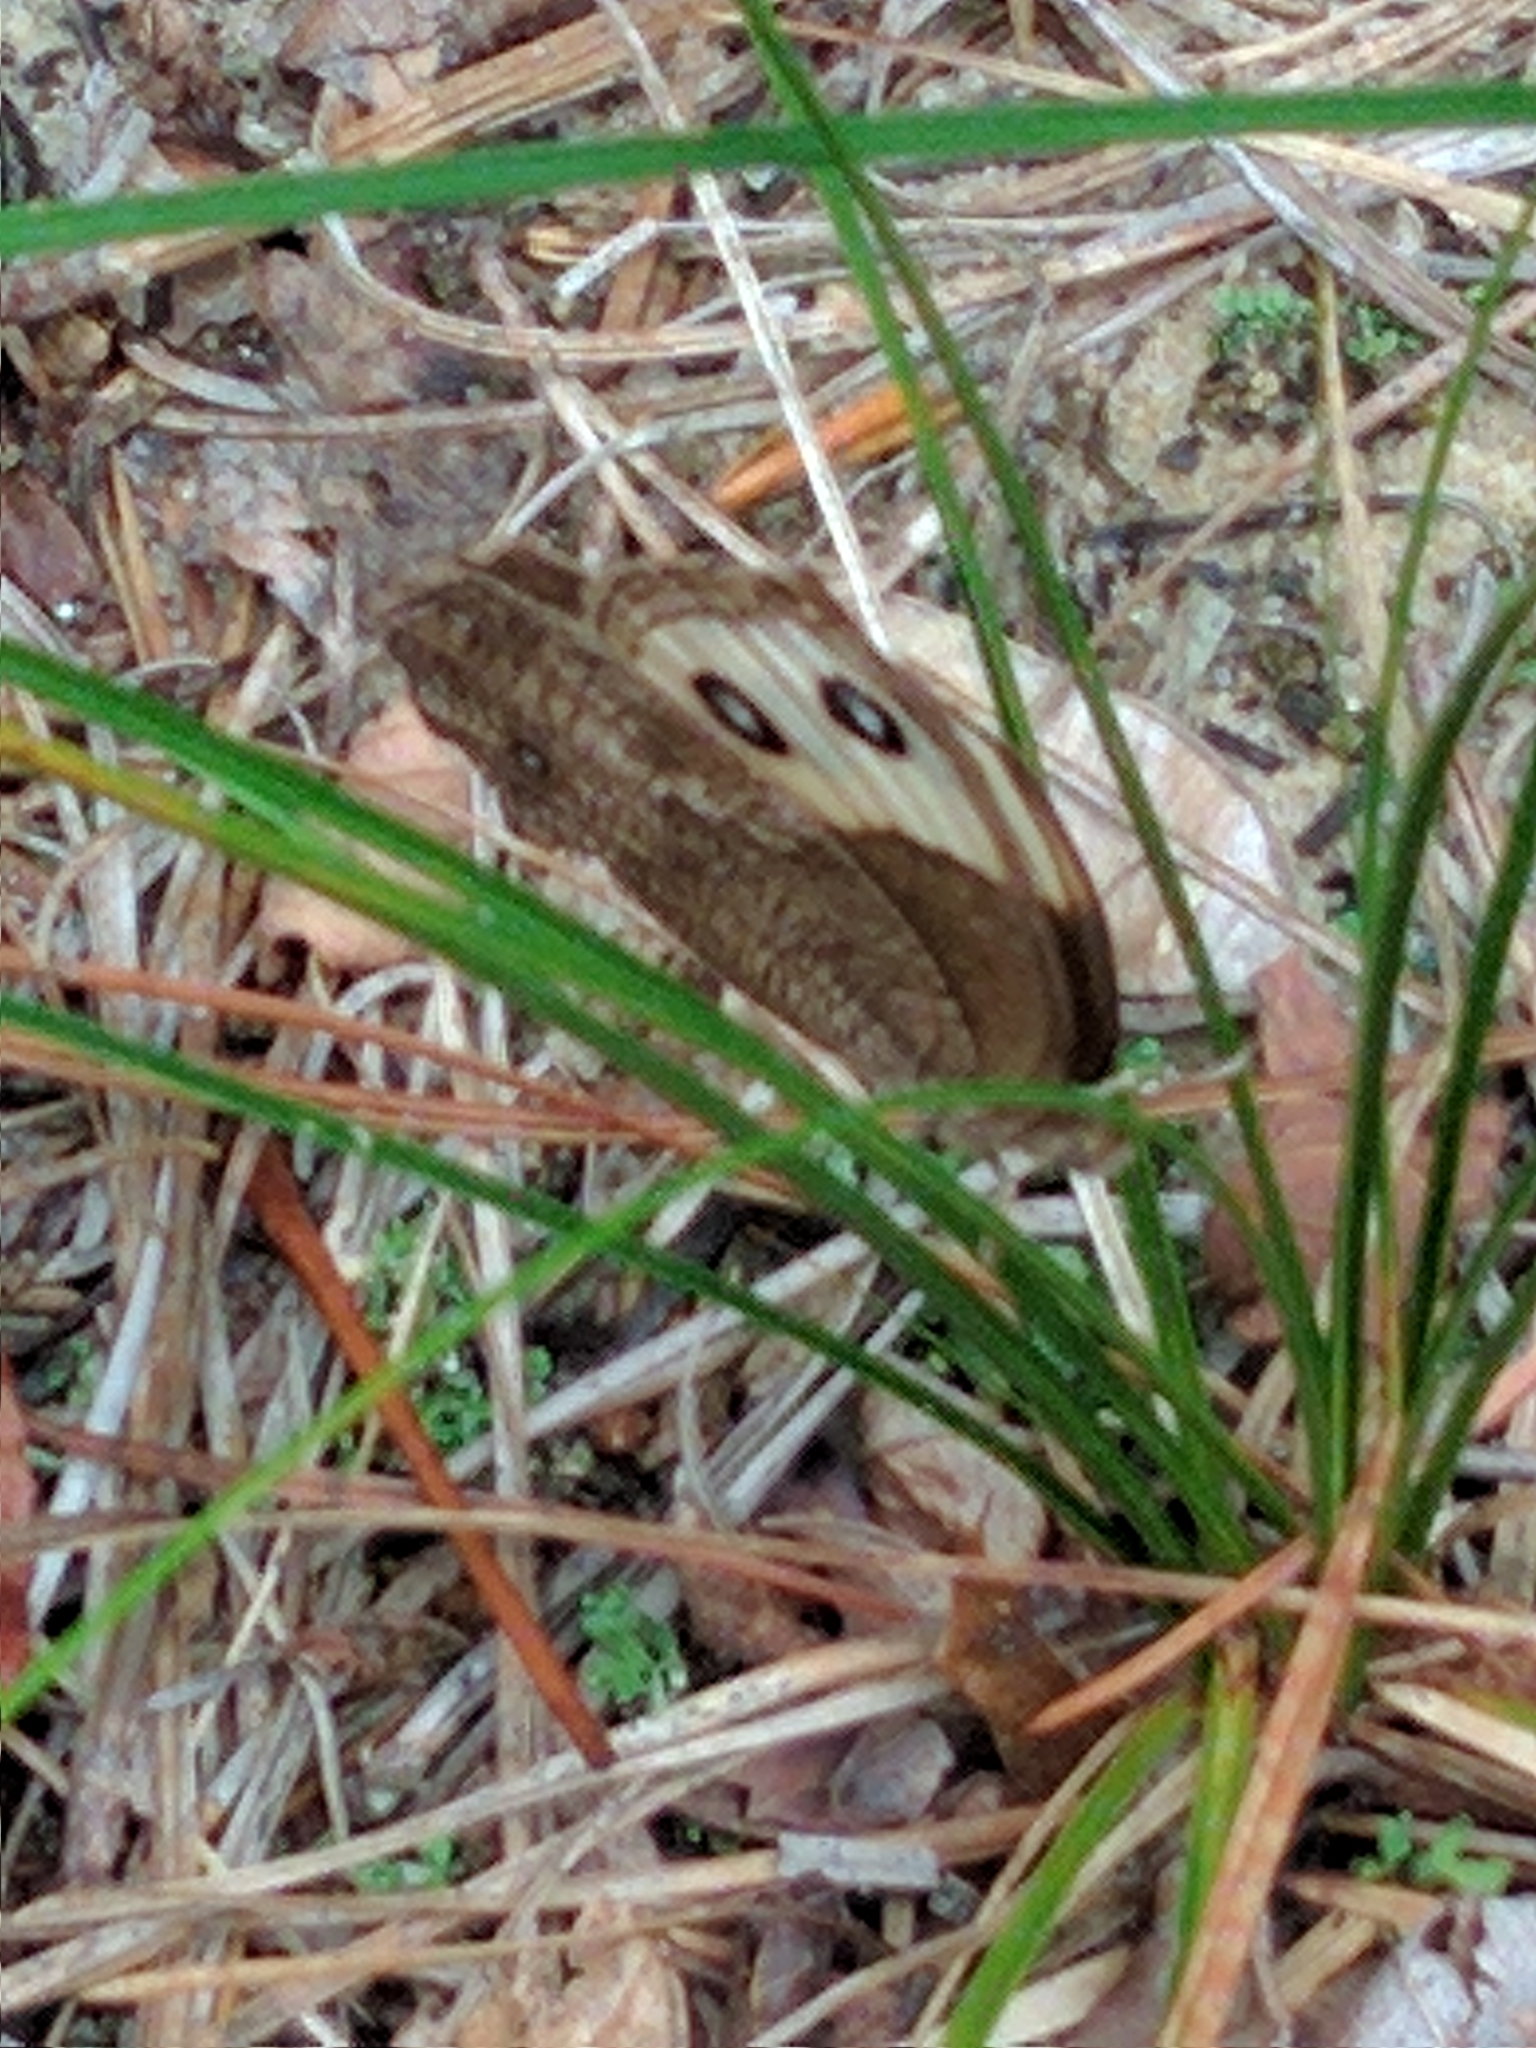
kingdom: Animalia
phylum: Arthropoda
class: Insecta
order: Lepidoptera
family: Nymphalidae
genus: Cercyonis
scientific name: Cercyonis pegala
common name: Common wood-nymph
